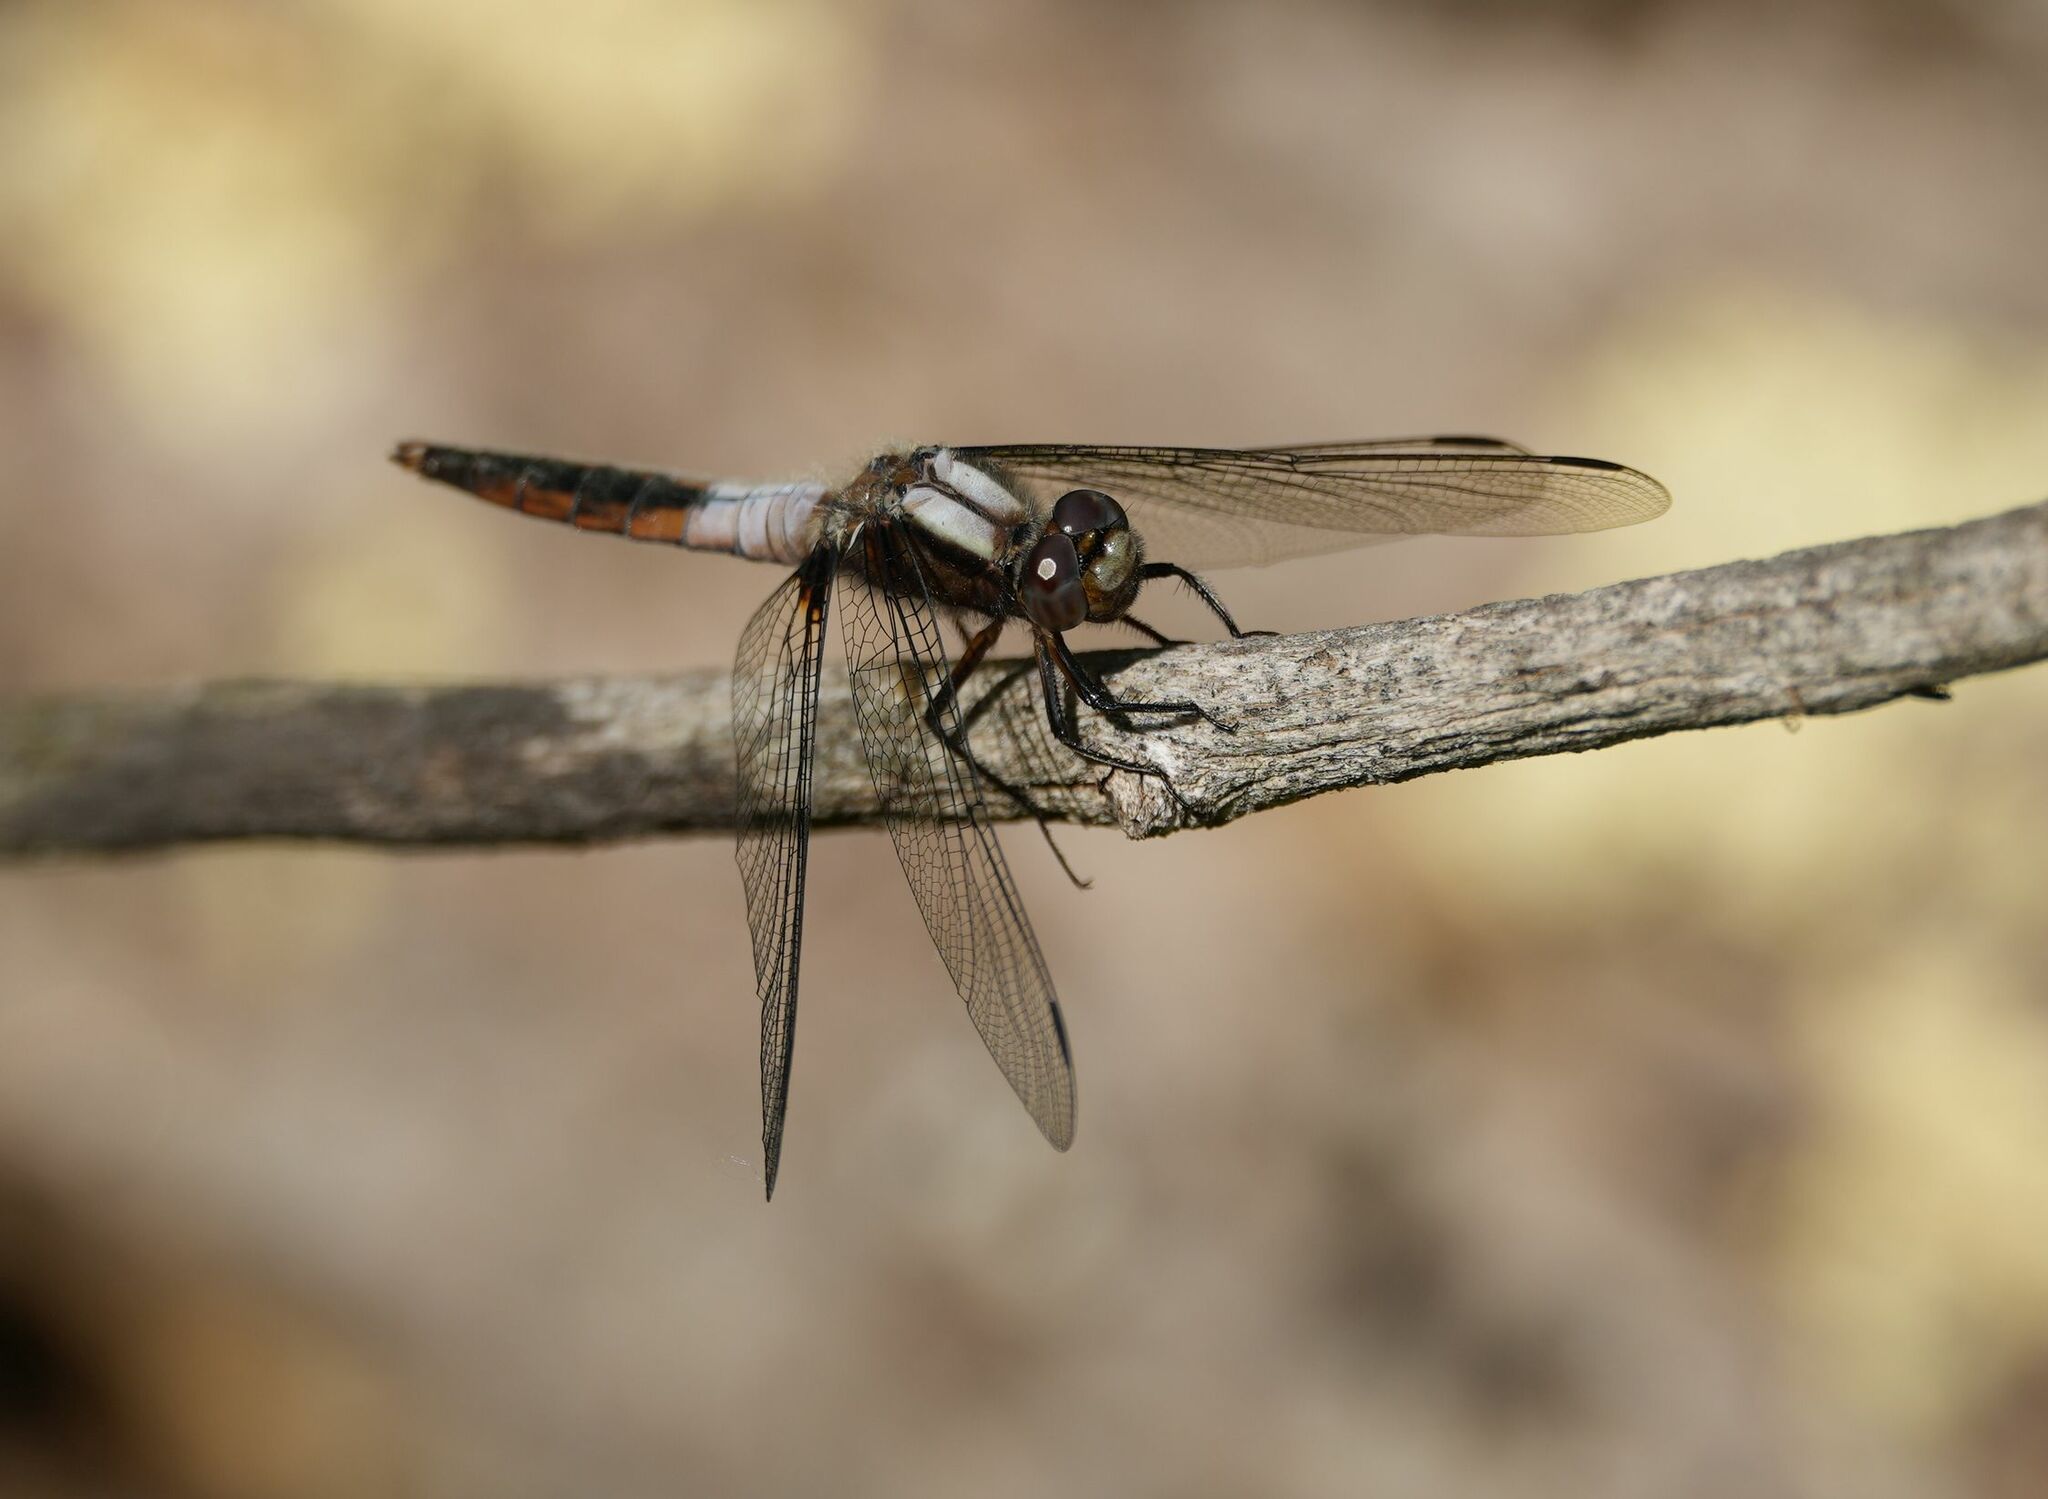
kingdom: Animalia
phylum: Arthropoda
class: Insecta
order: Odonata
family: Libellulidae
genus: Ladona
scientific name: Ladona julia
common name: Chalk-fronted corporal
